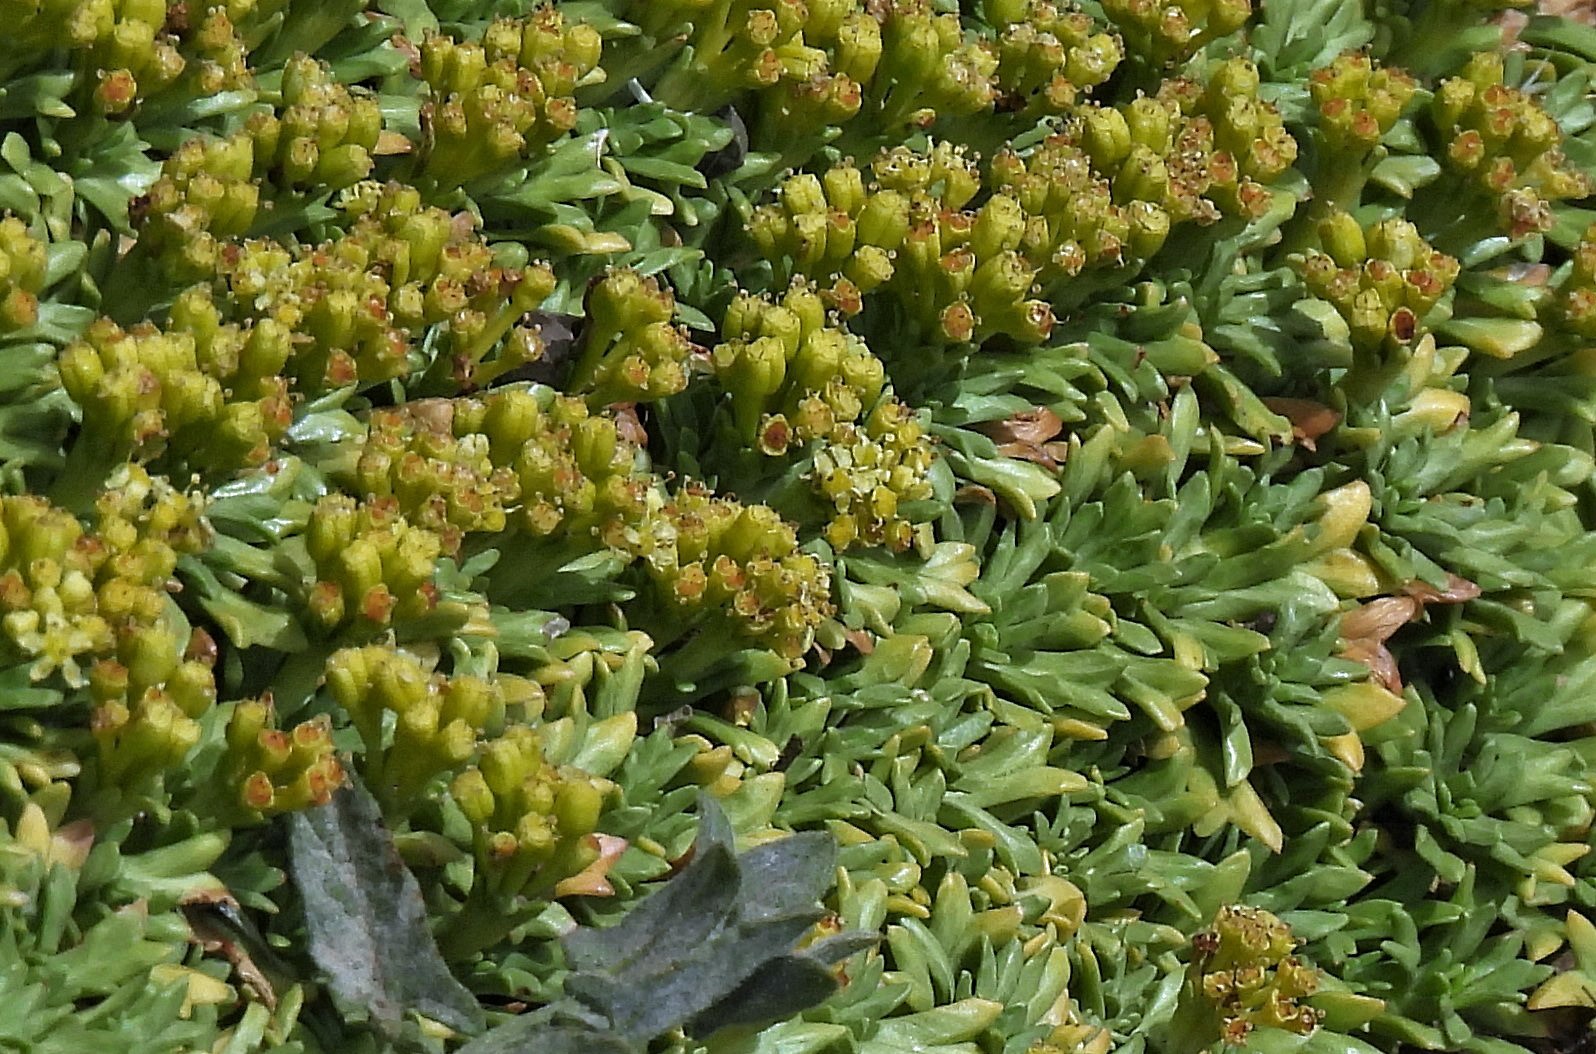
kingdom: Plantae
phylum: Tracheophyta
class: Magnoliopsida
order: Apiales
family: Apiaceae
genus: Azorella
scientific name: Azorella trifurcata
